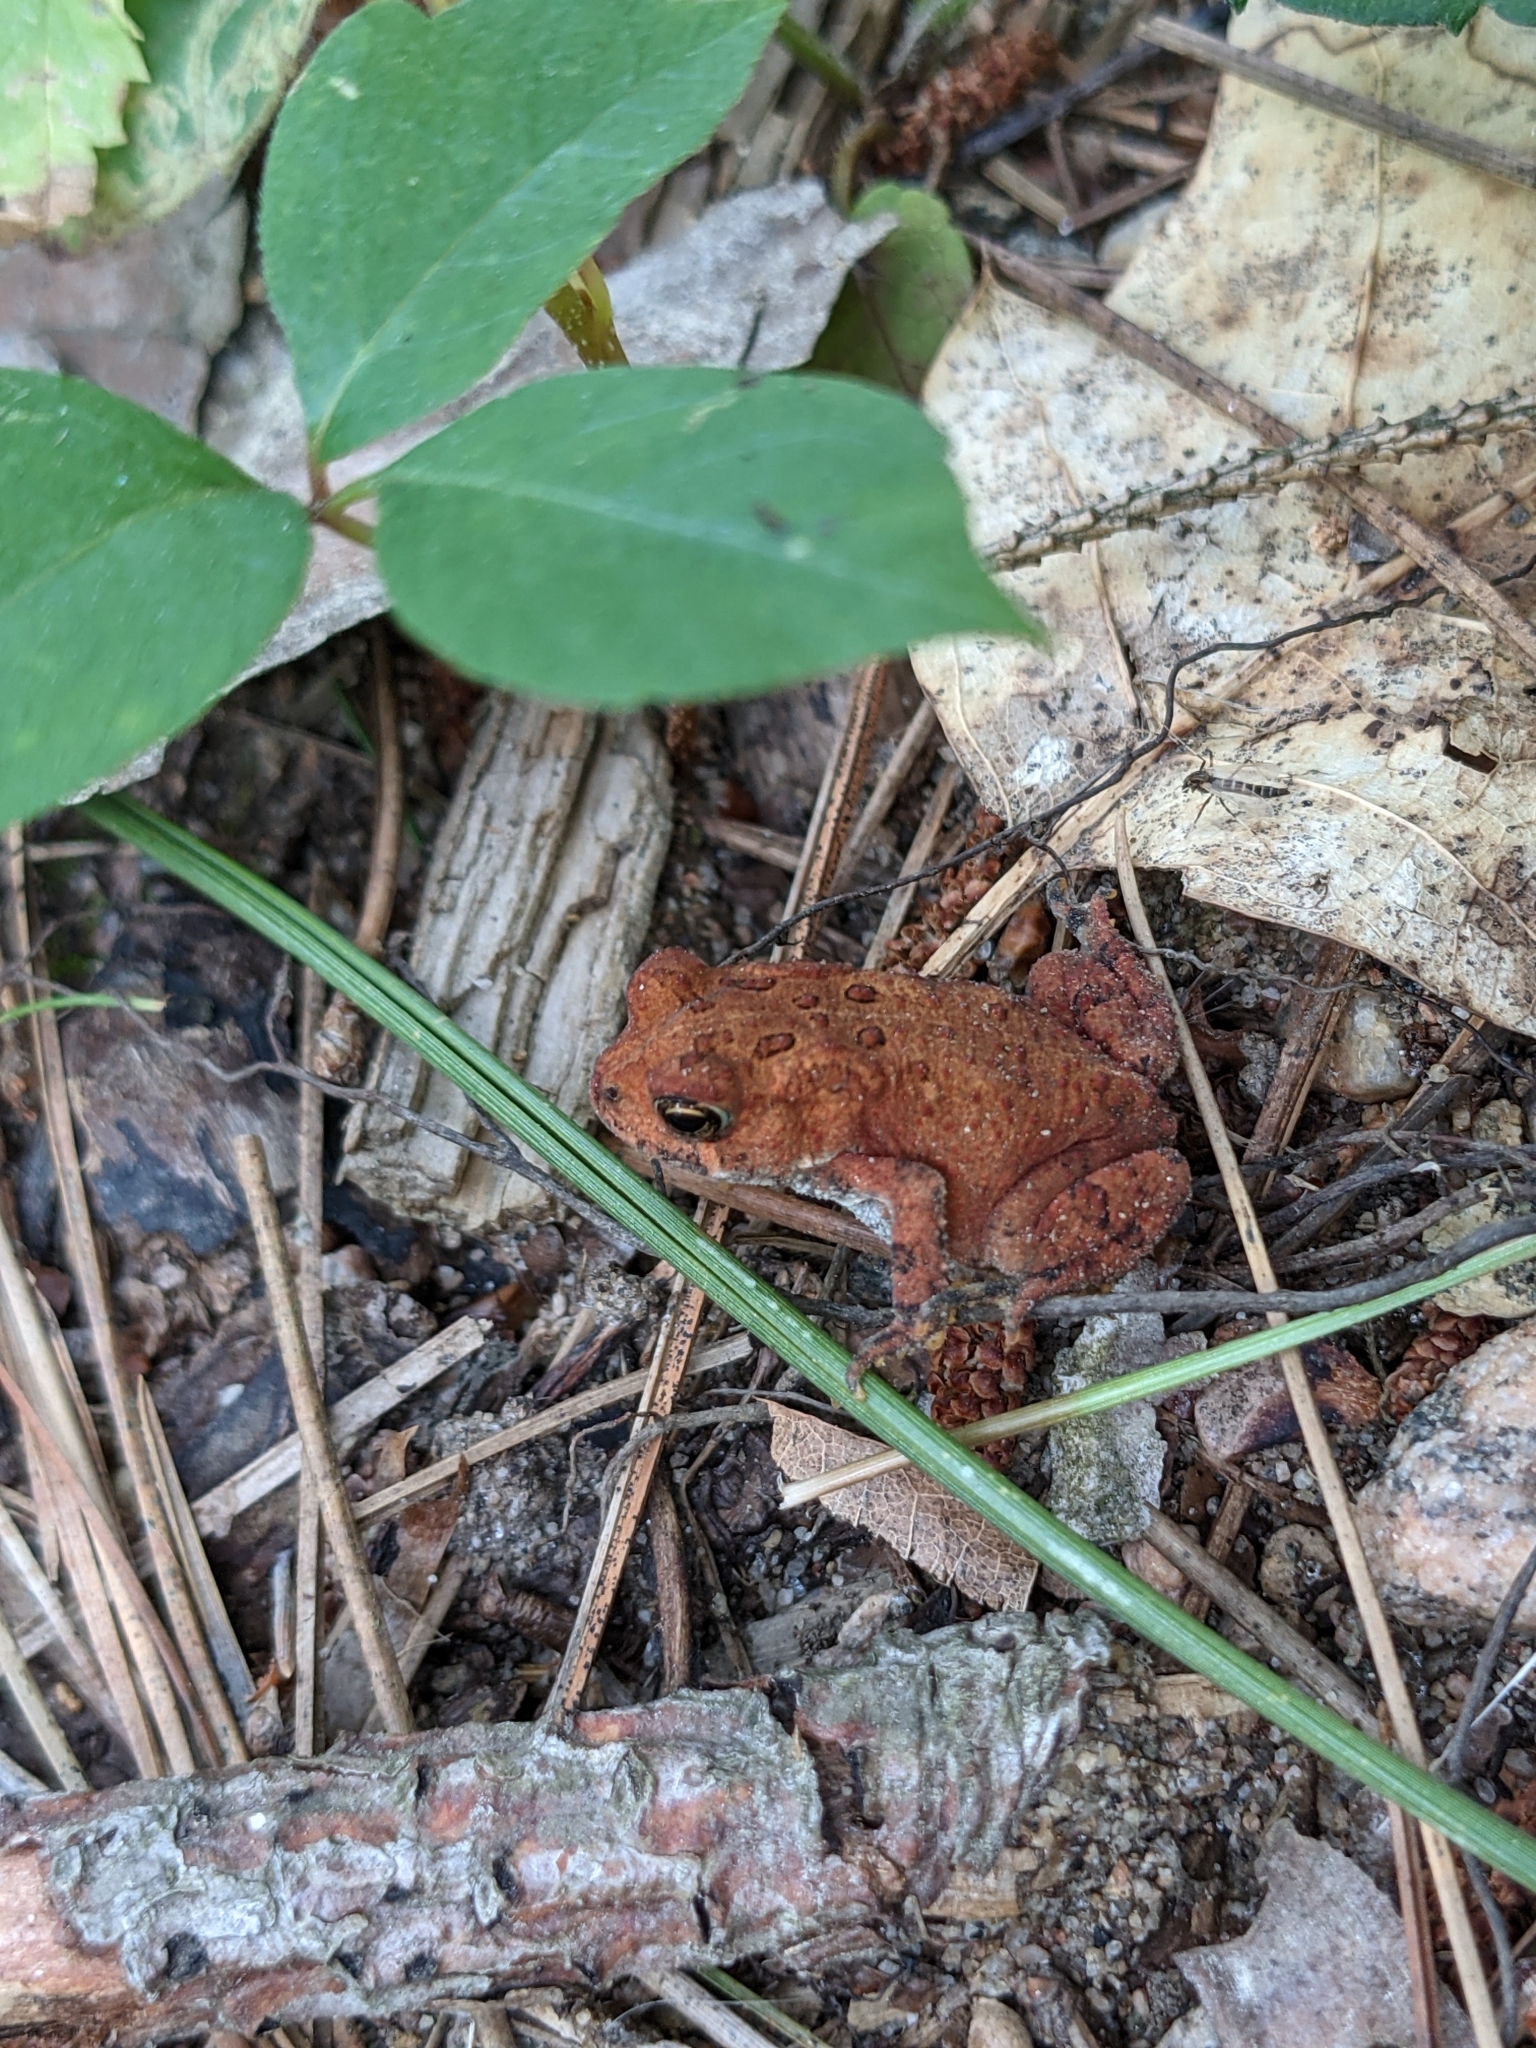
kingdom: Animalia
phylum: Chordata
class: Amphibia
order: Anura
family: Bufonidae
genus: Anaxyrus
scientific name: Anaxyrus americanus
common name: American toad
